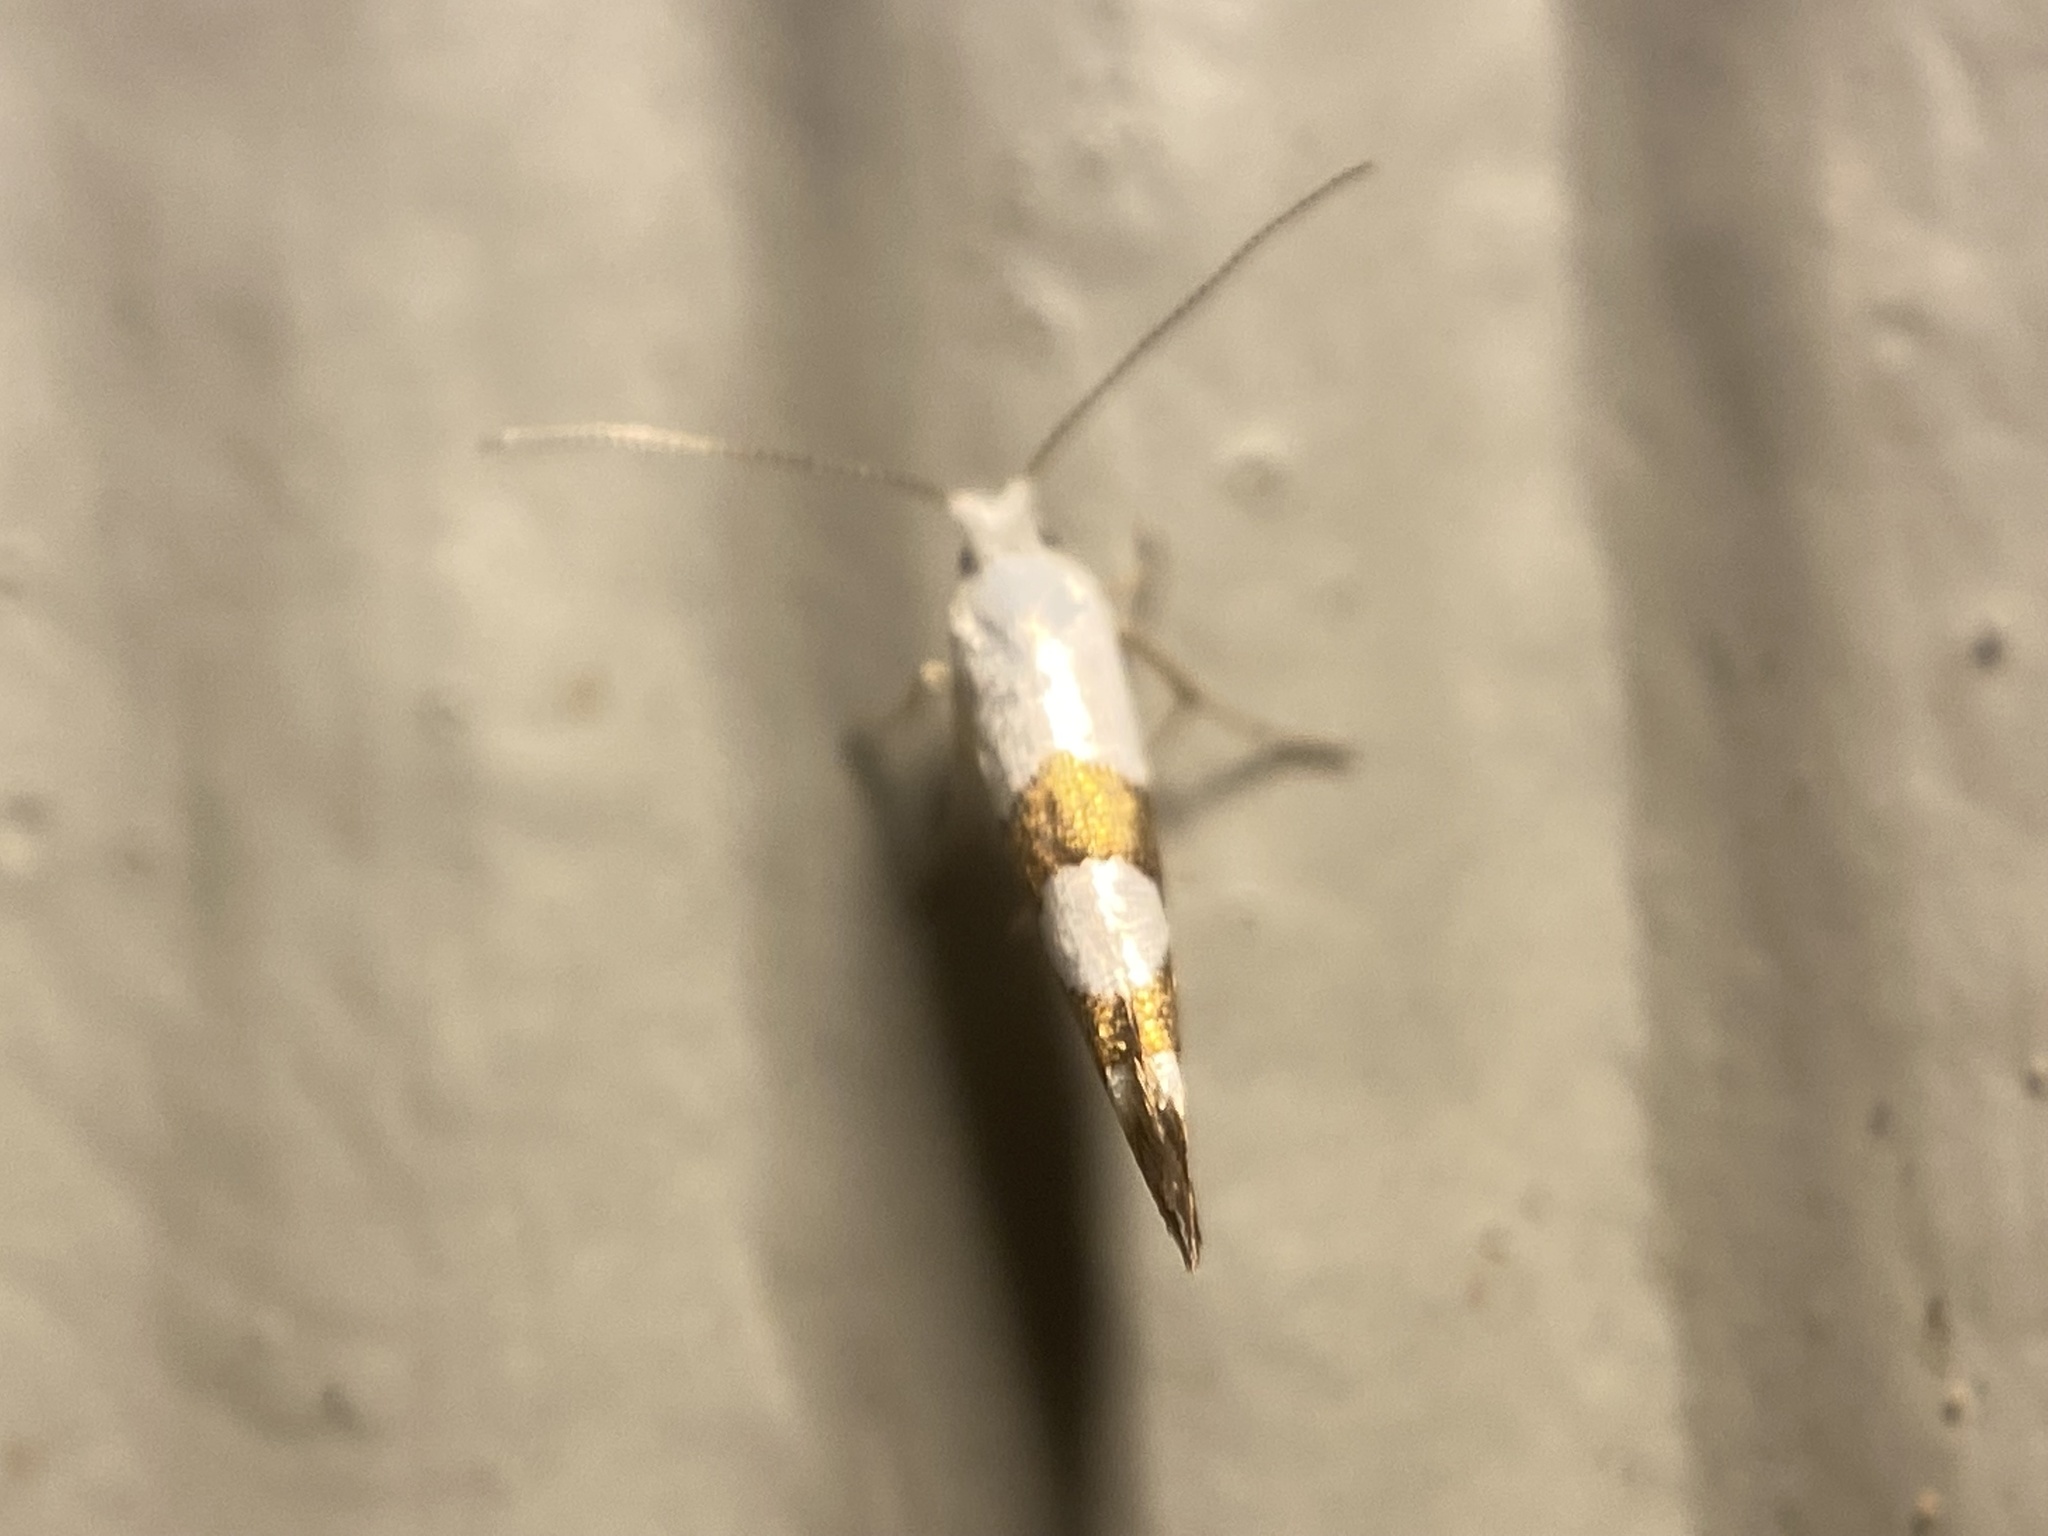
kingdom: Animalia
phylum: Arthropoda
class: Insecta
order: Lepidoptera
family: Argyresthiidae
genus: Argyresthia
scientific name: Argyresthia oreasella
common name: Cherry shoot borer moth
